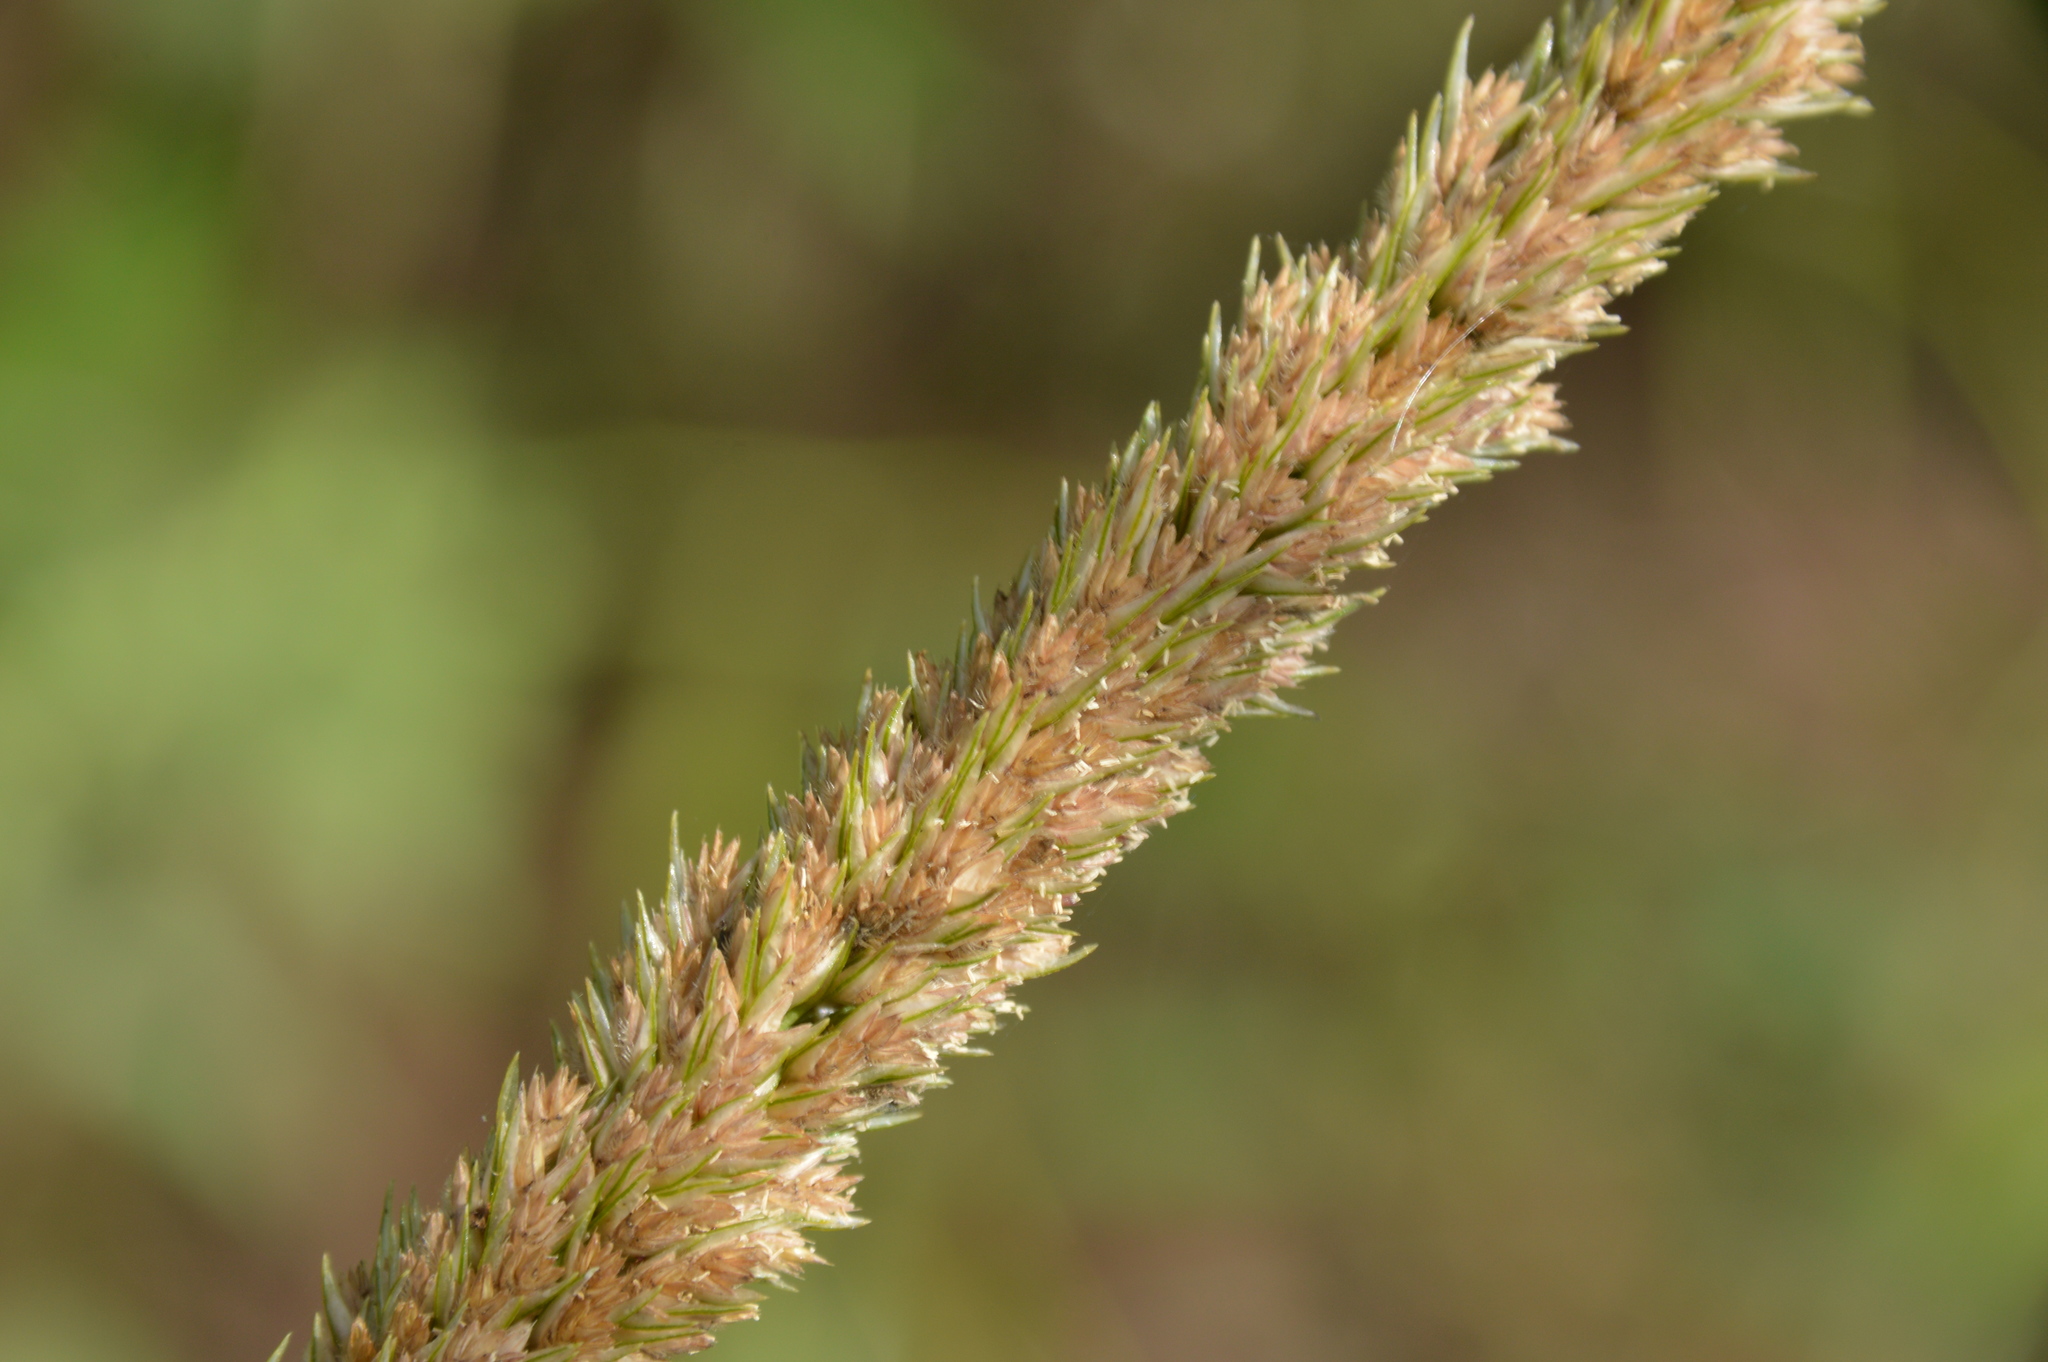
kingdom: Plantae
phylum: Tracheophyta
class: Liliopsida
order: Poales
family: Poaceae
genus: Tridens
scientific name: Tridens strictus
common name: Long-spike tridens
